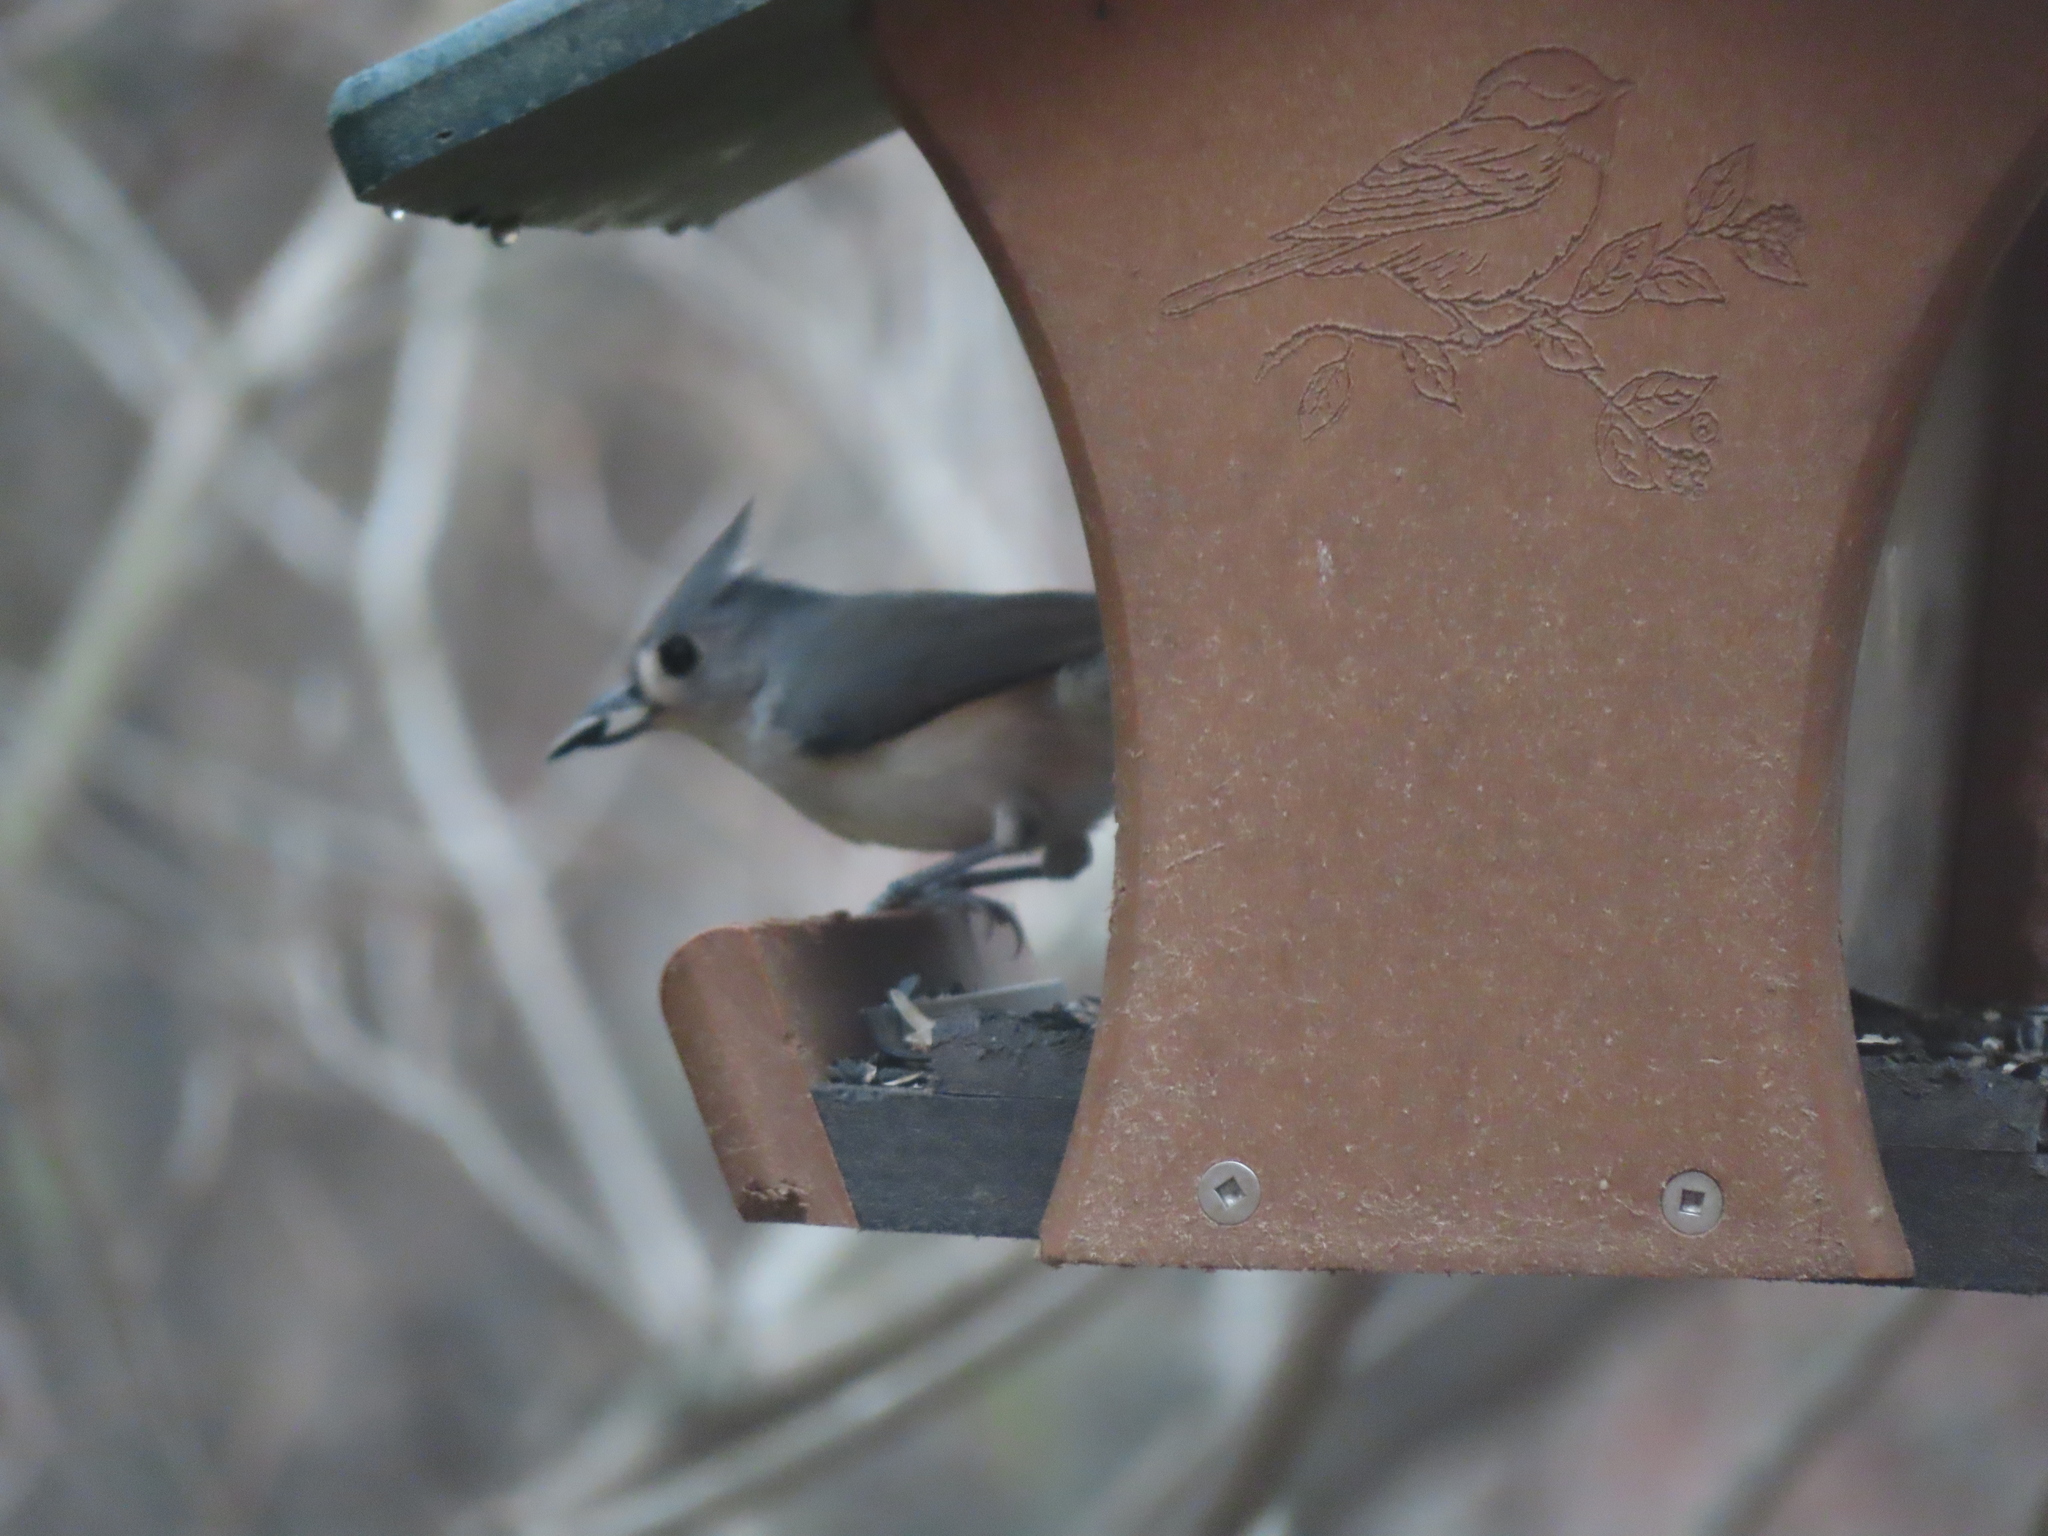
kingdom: Animalia
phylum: Chordata
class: Aves
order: Passeriformes
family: Paridae
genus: Baeolophus
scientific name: Baeolophus bicolor
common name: Tufted titmouse
